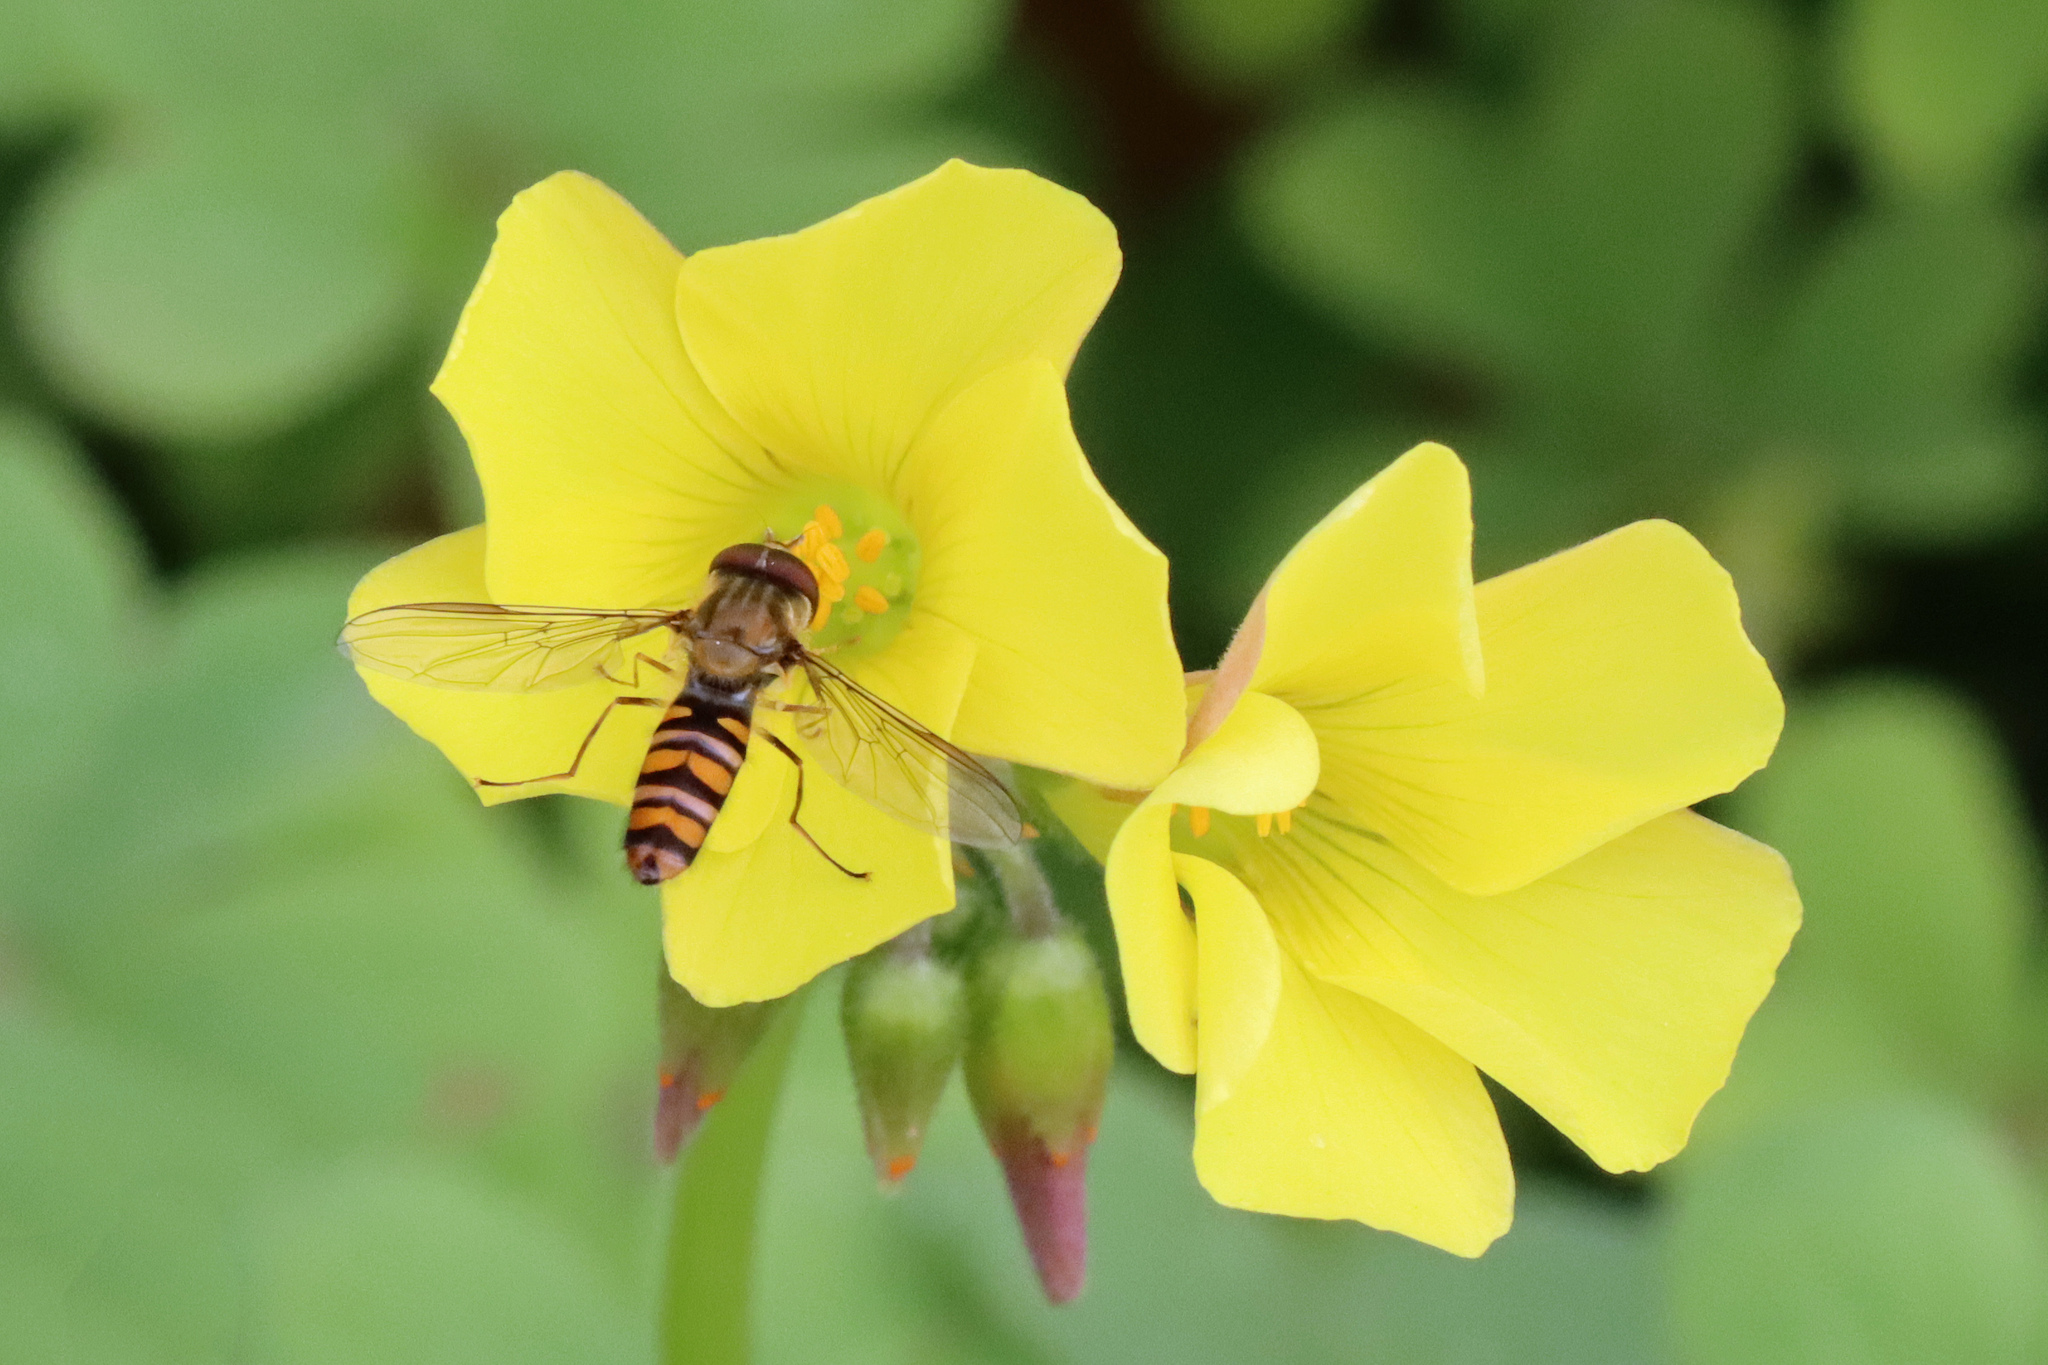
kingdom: Animalia
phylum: Arthropoda
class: Insecta
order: Diptera
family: Syrphidae
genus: Episyrphus
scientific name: Episyrphus balteatus
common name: Marmalade hoverfly
